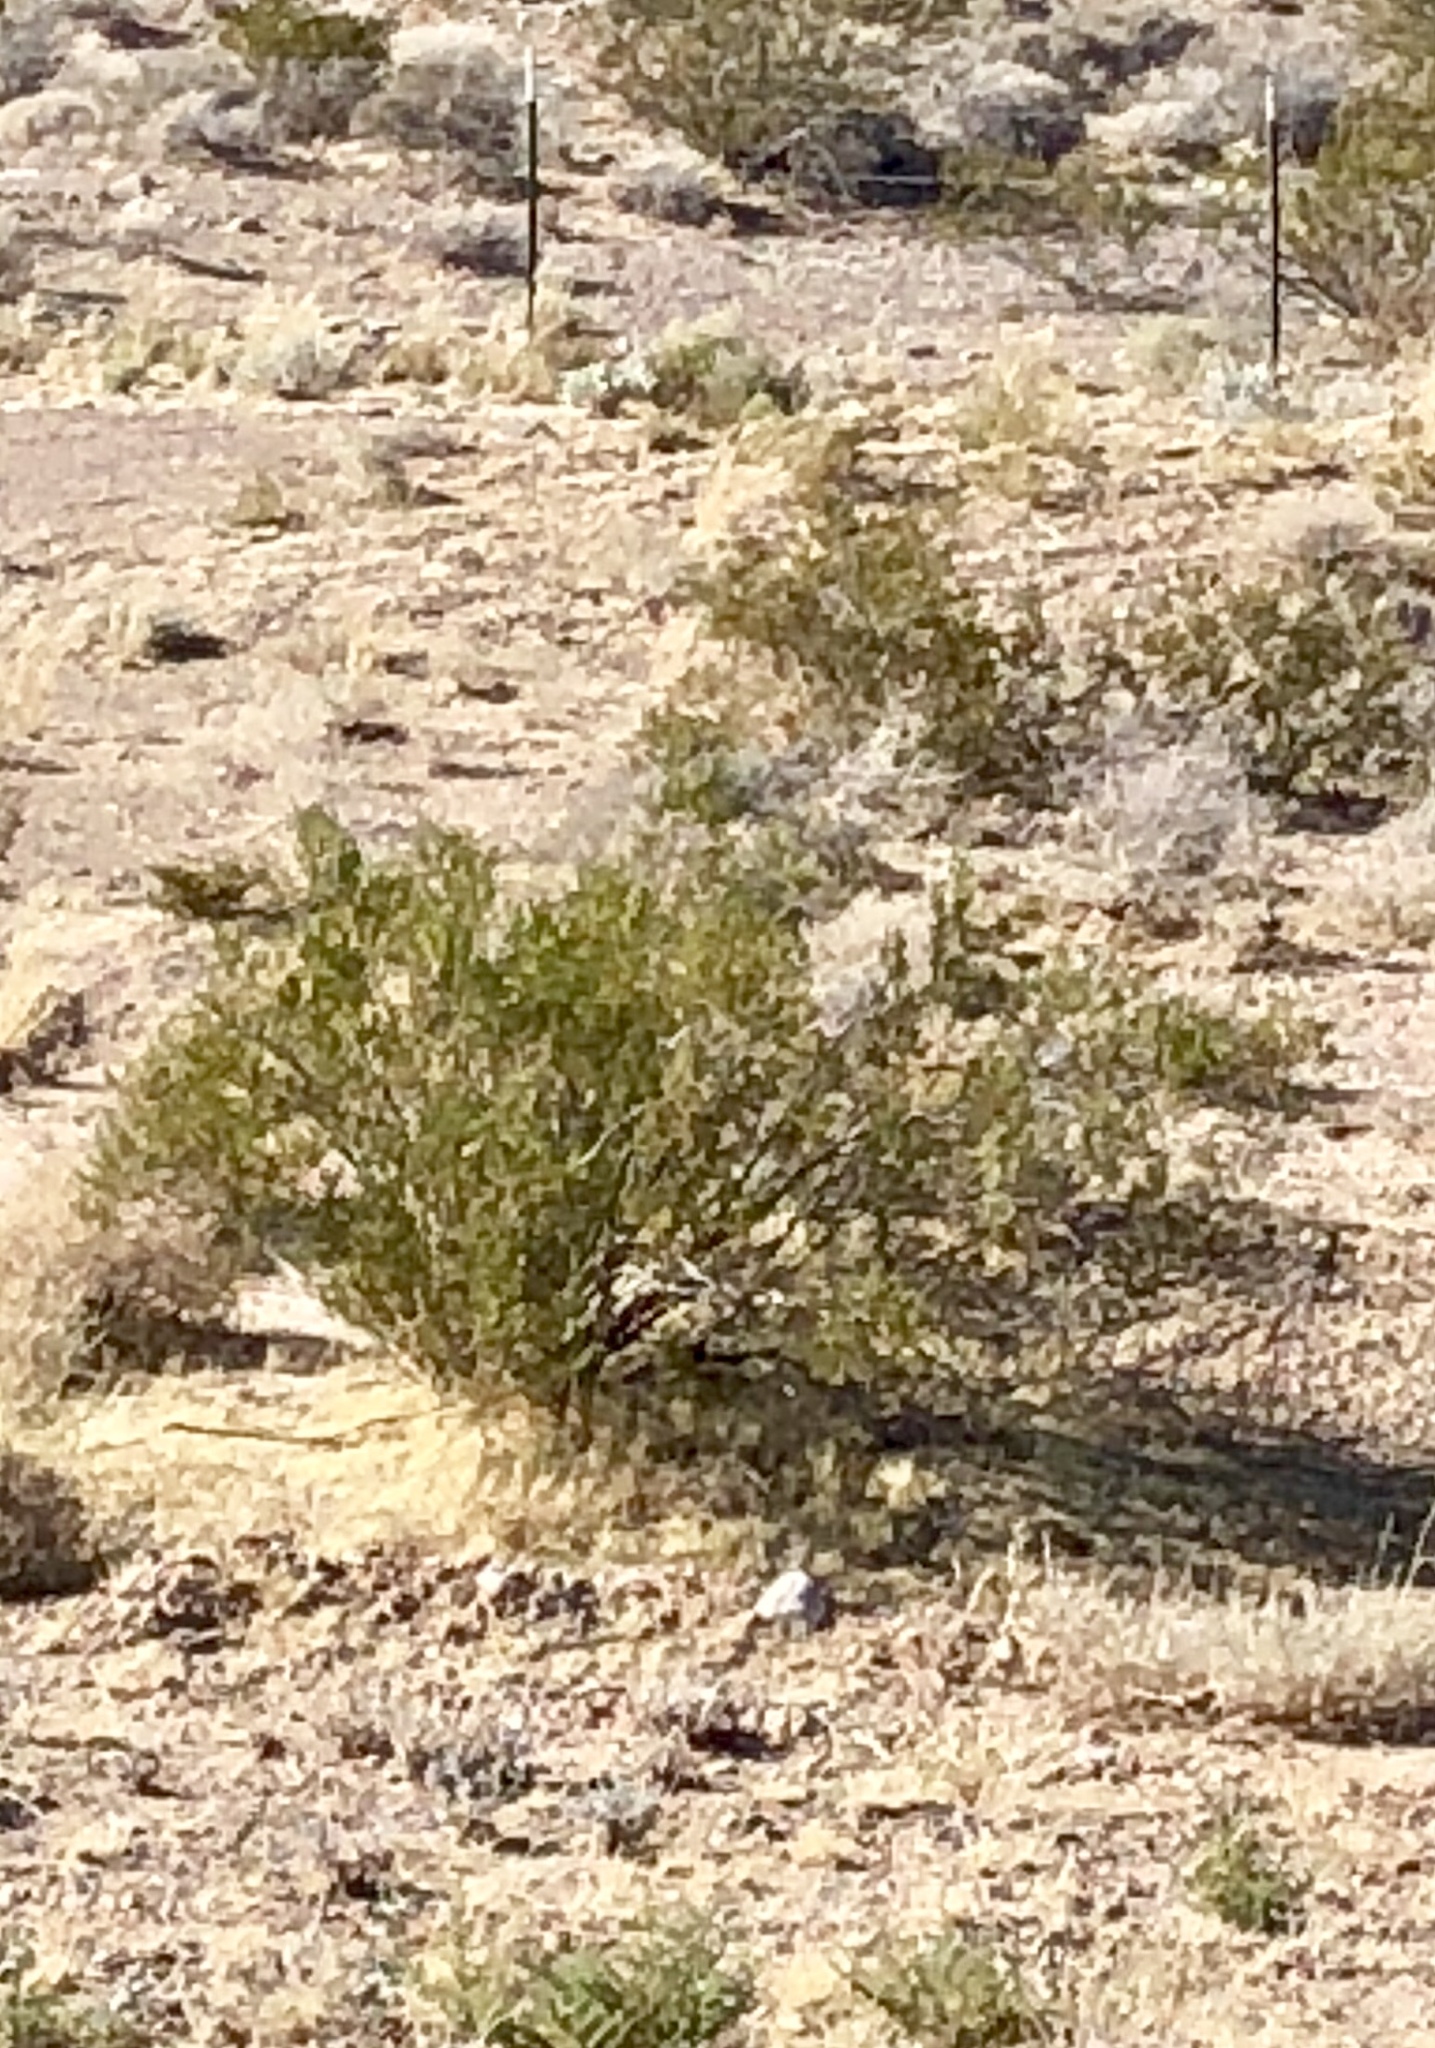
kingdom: Plantae
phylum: Tracheophyta
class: Magnoliopsida
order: Zygophyllales
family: Zygophyllaceae
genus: Larrea
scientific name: Larrea tridentata
